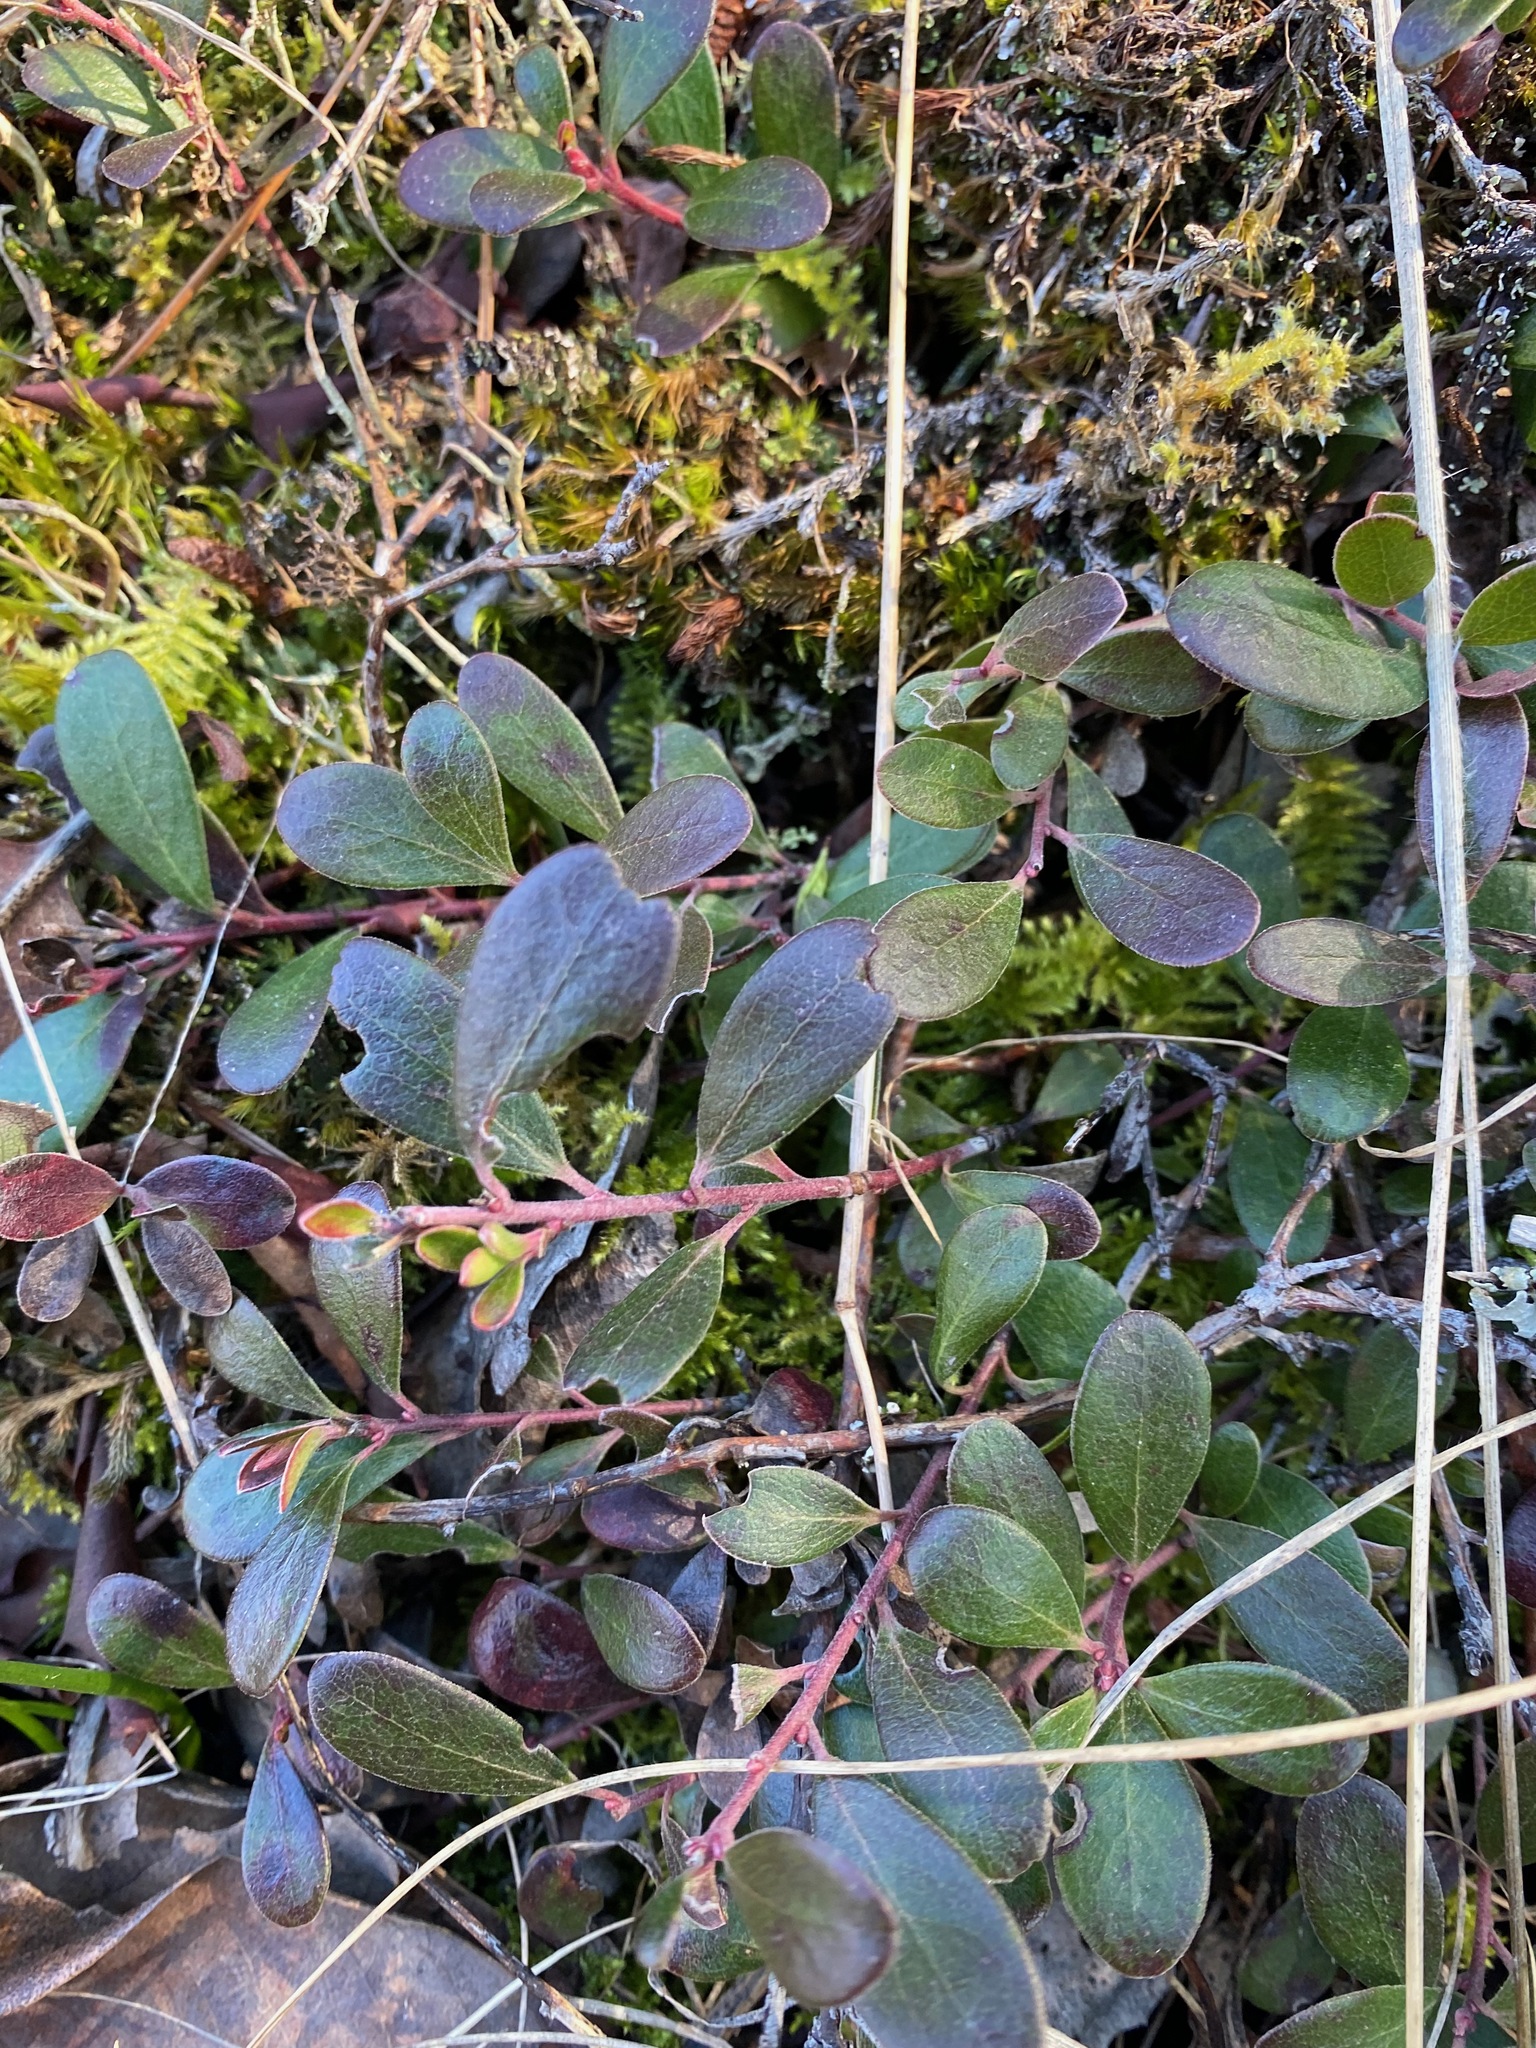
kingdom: Plantae
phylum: Tracheophyta
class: Magnoliopsida
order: Ericales
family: Ericaceae
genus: Arctostaphylos
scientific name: Arctostaphylos uva-ursi
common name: Bearberry
